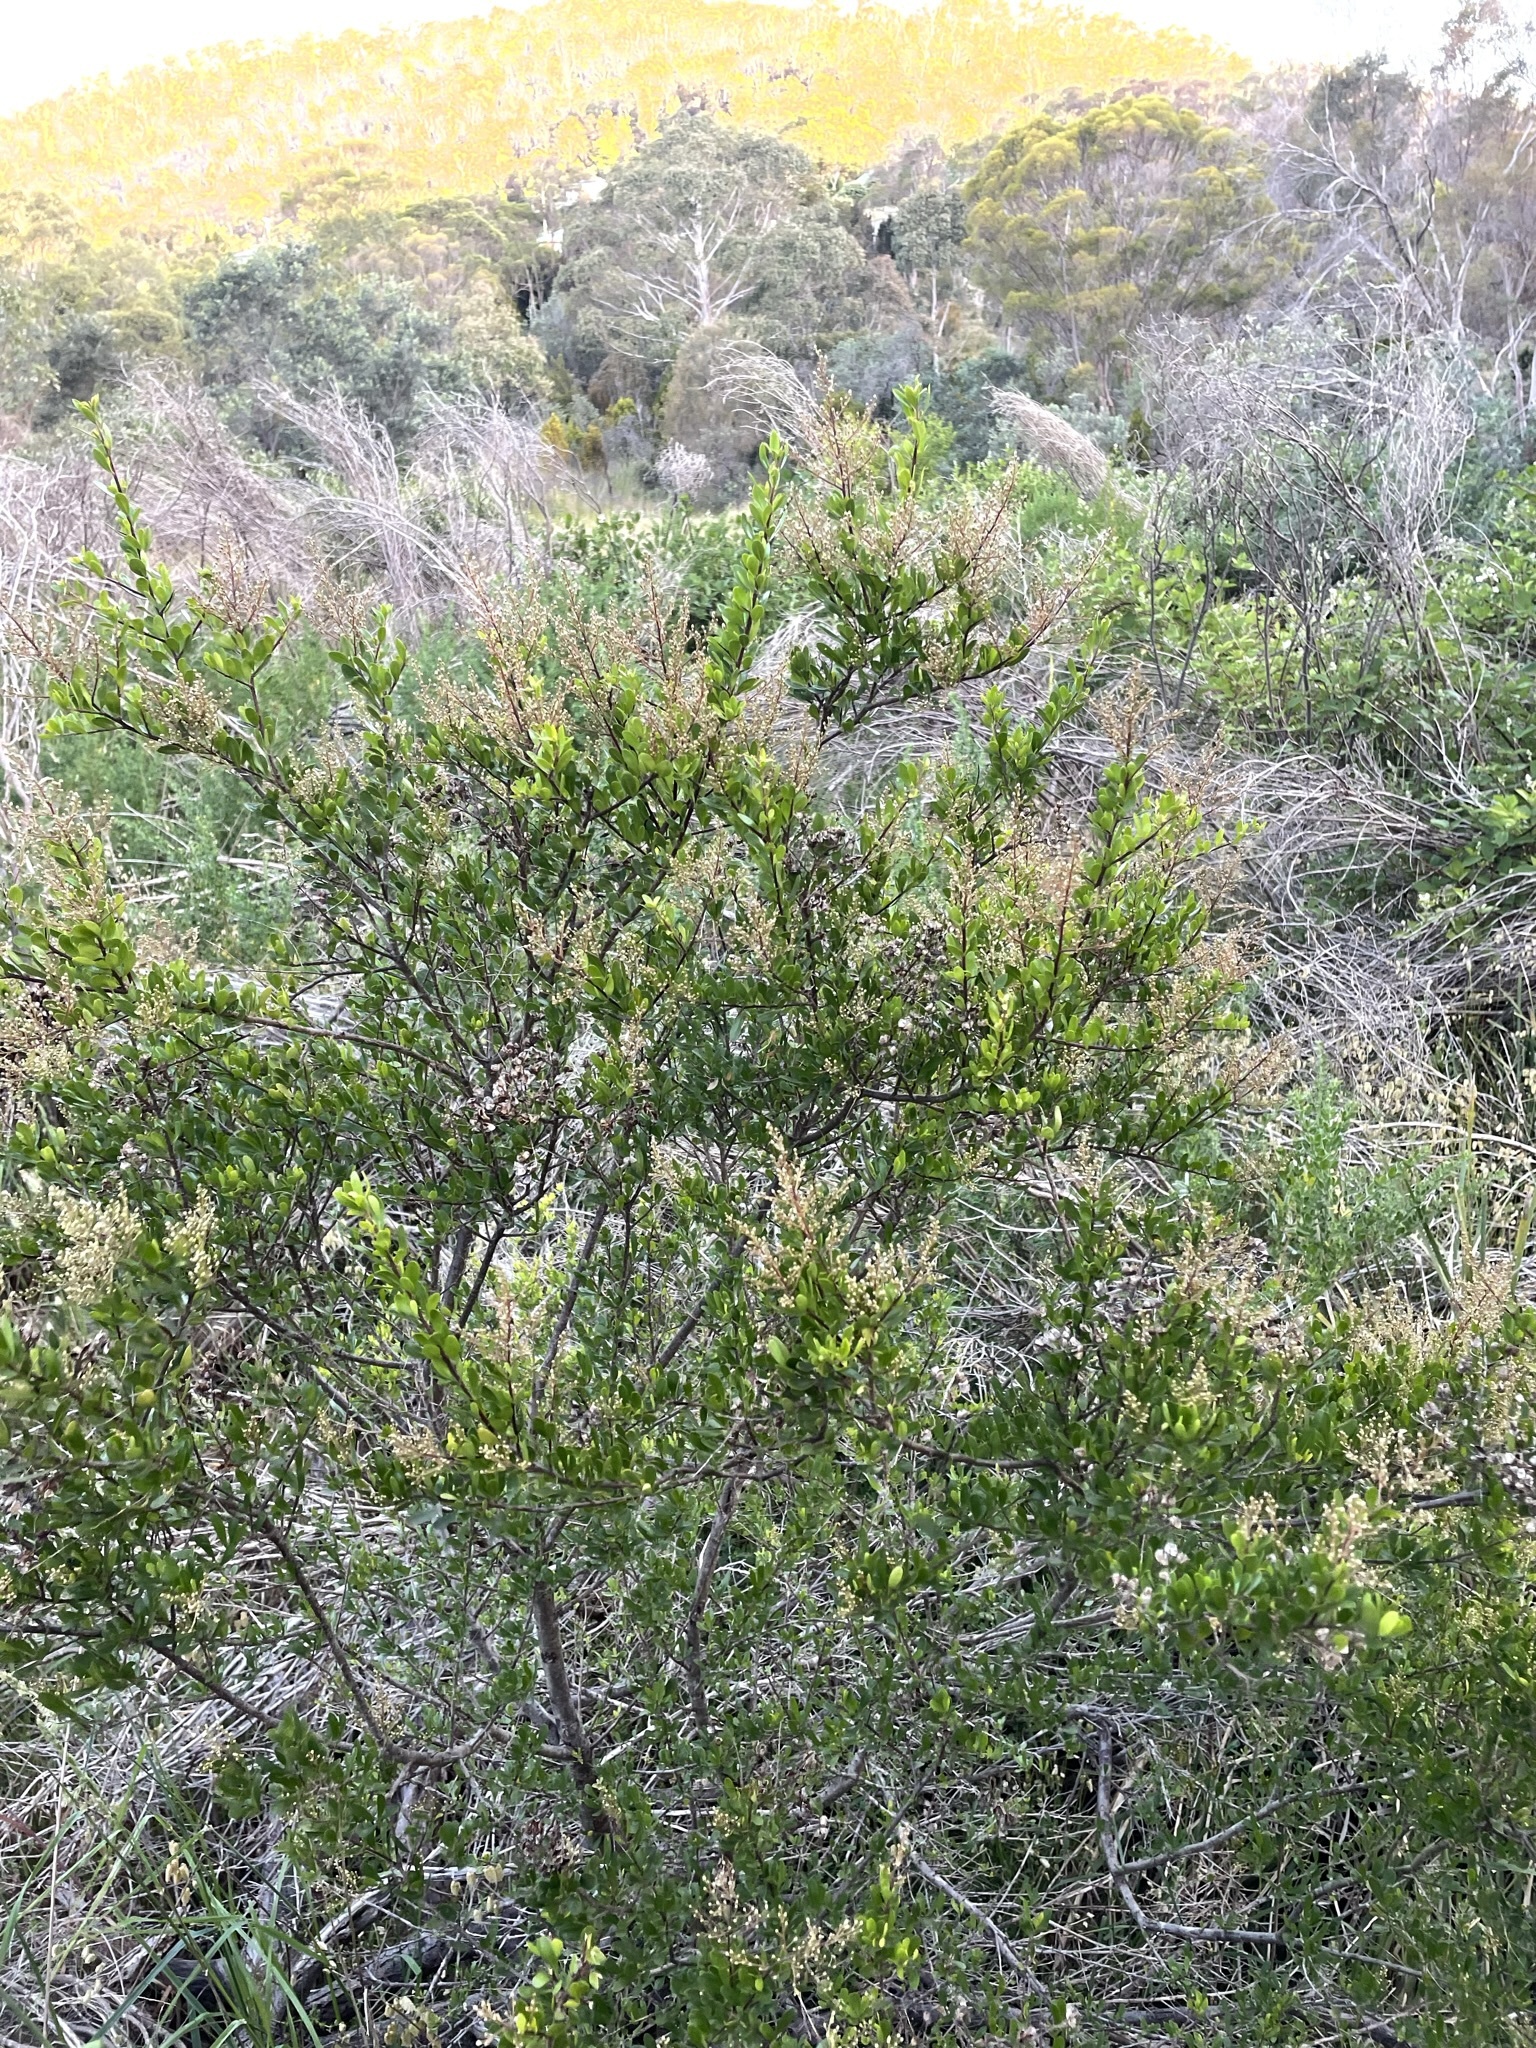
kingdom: Plantae
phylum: Tracheophyta
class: Magnoliopsida
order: Apiales
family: Pittosporaceae
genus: Bursaria
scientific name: Bursaria spinosa
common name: Australian blackthorn
